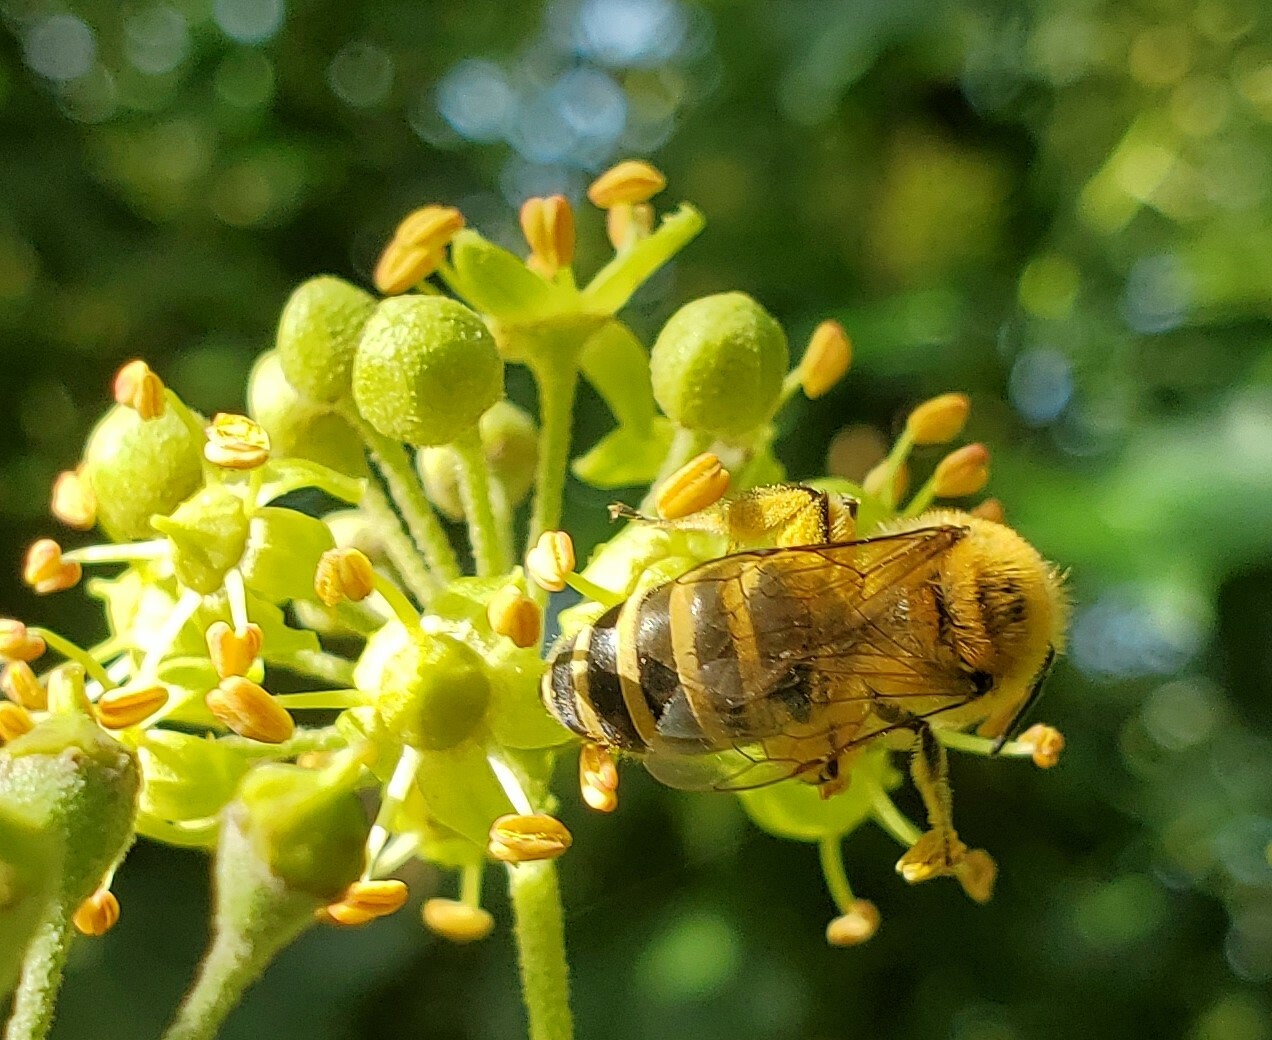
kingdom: Animalia
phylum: Arthropoda
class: Insecta
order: Hymenoptera
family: Colletidae
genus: Colletes
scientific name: Colletes hederae
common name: Ivy bee
